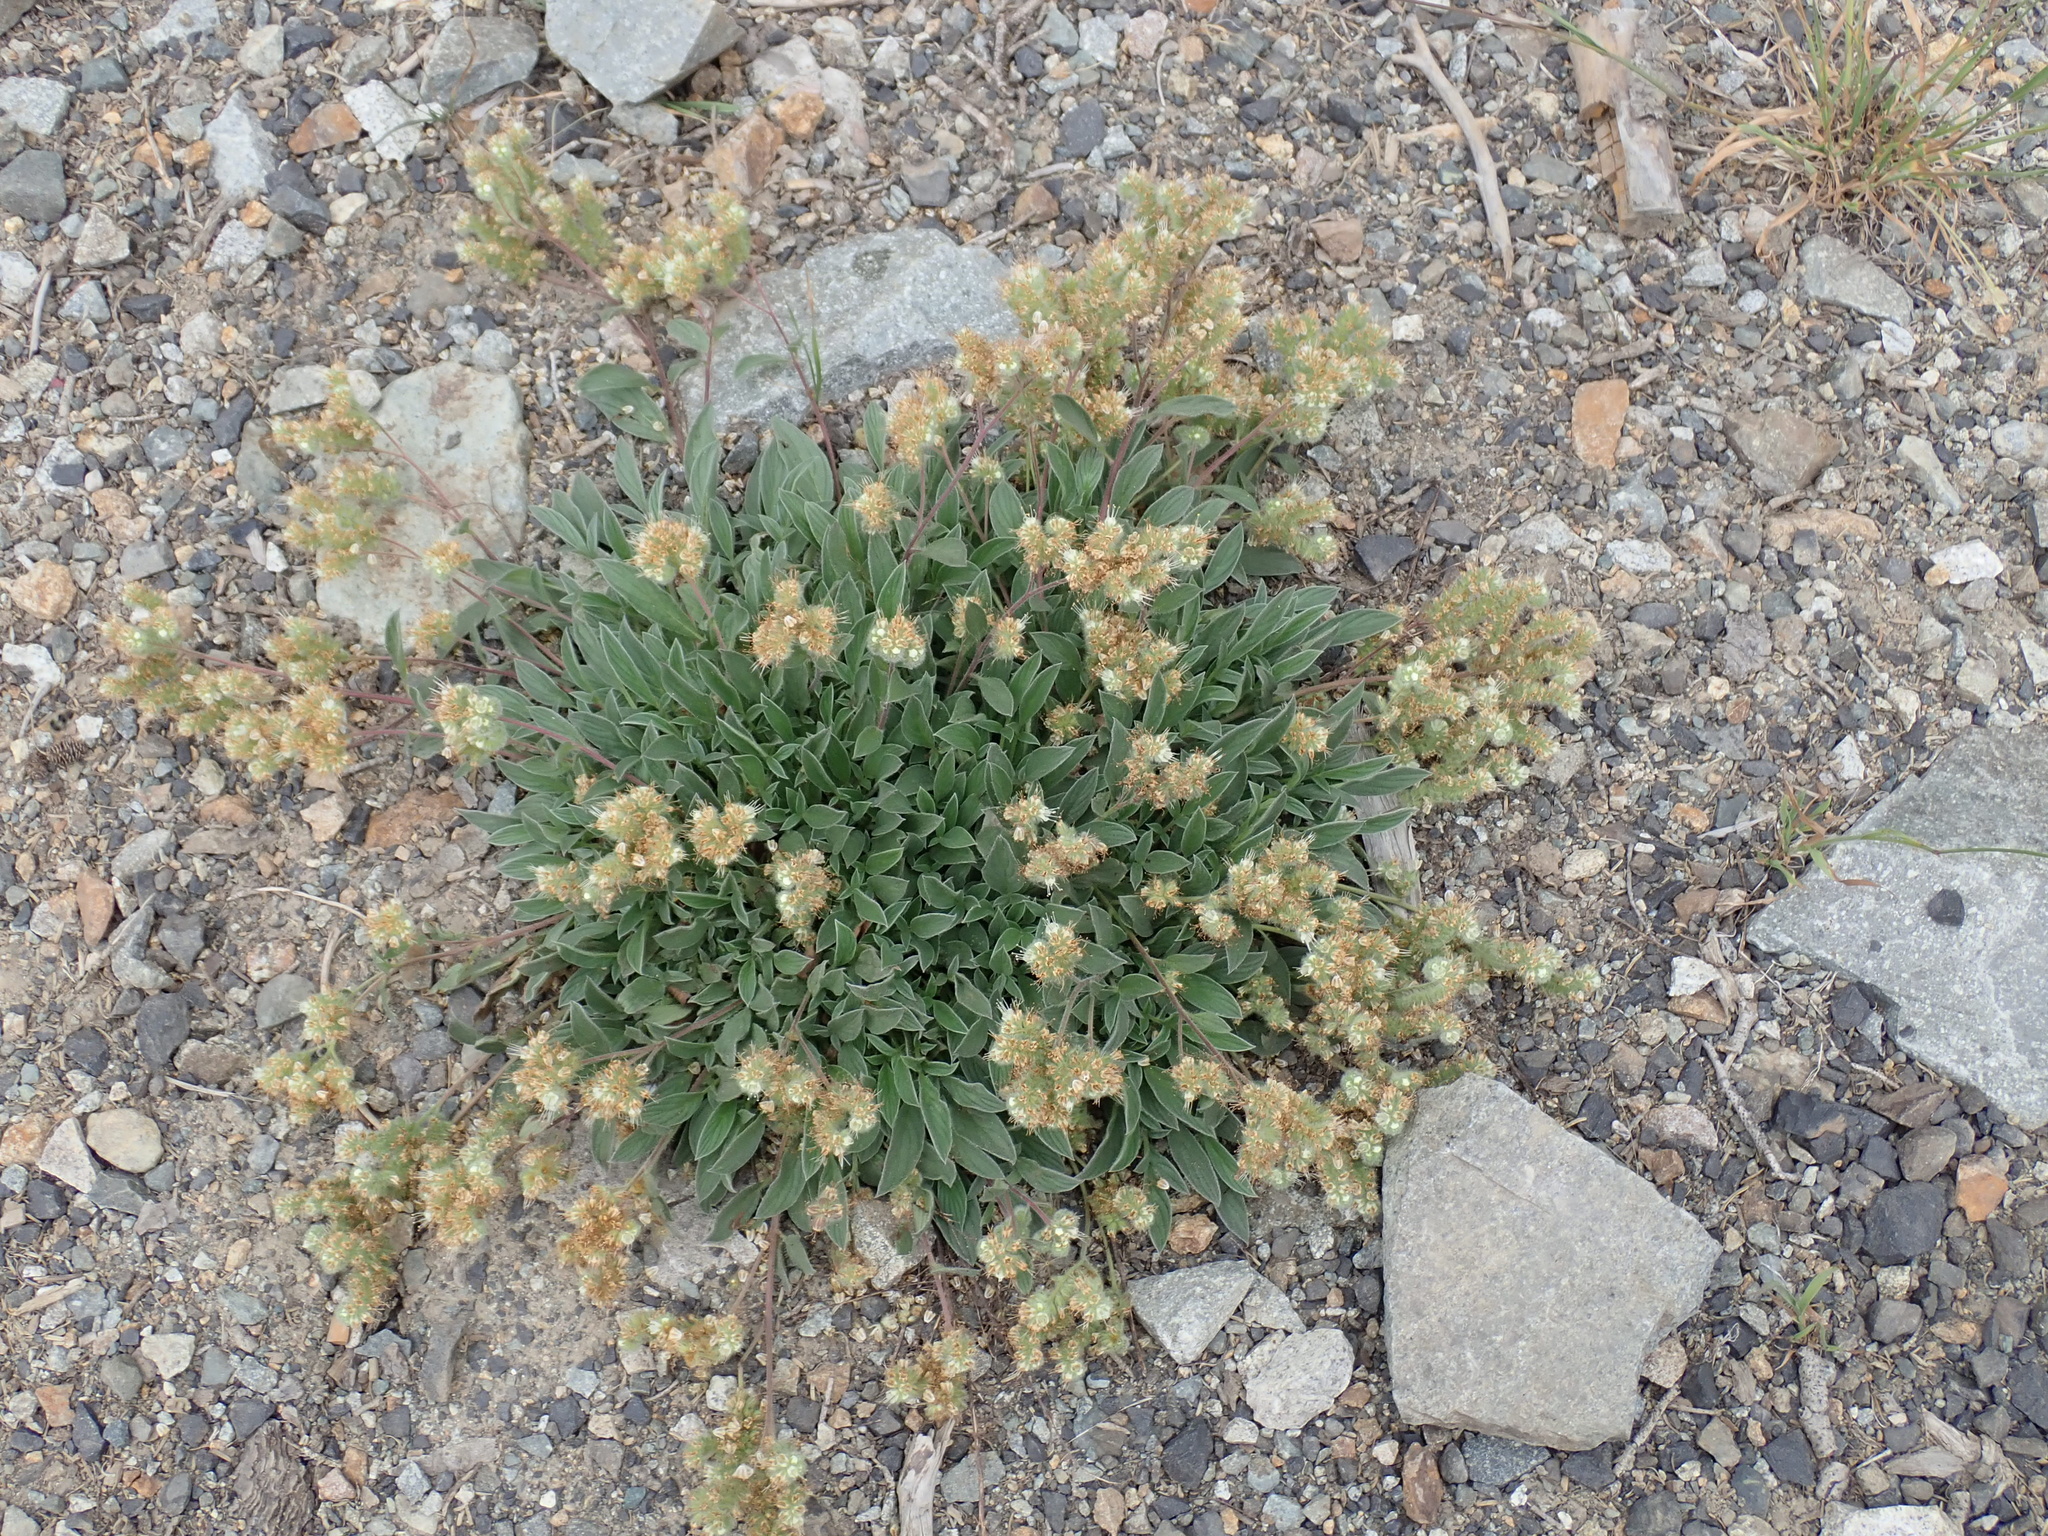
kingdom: Plantae
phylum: Tracheophyta
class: Magnoliopsida
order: Boraginales
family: Hydrophyllaceae
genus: Phacelia
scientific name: Phacelia hastata
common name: Silver-leaved phacelia
